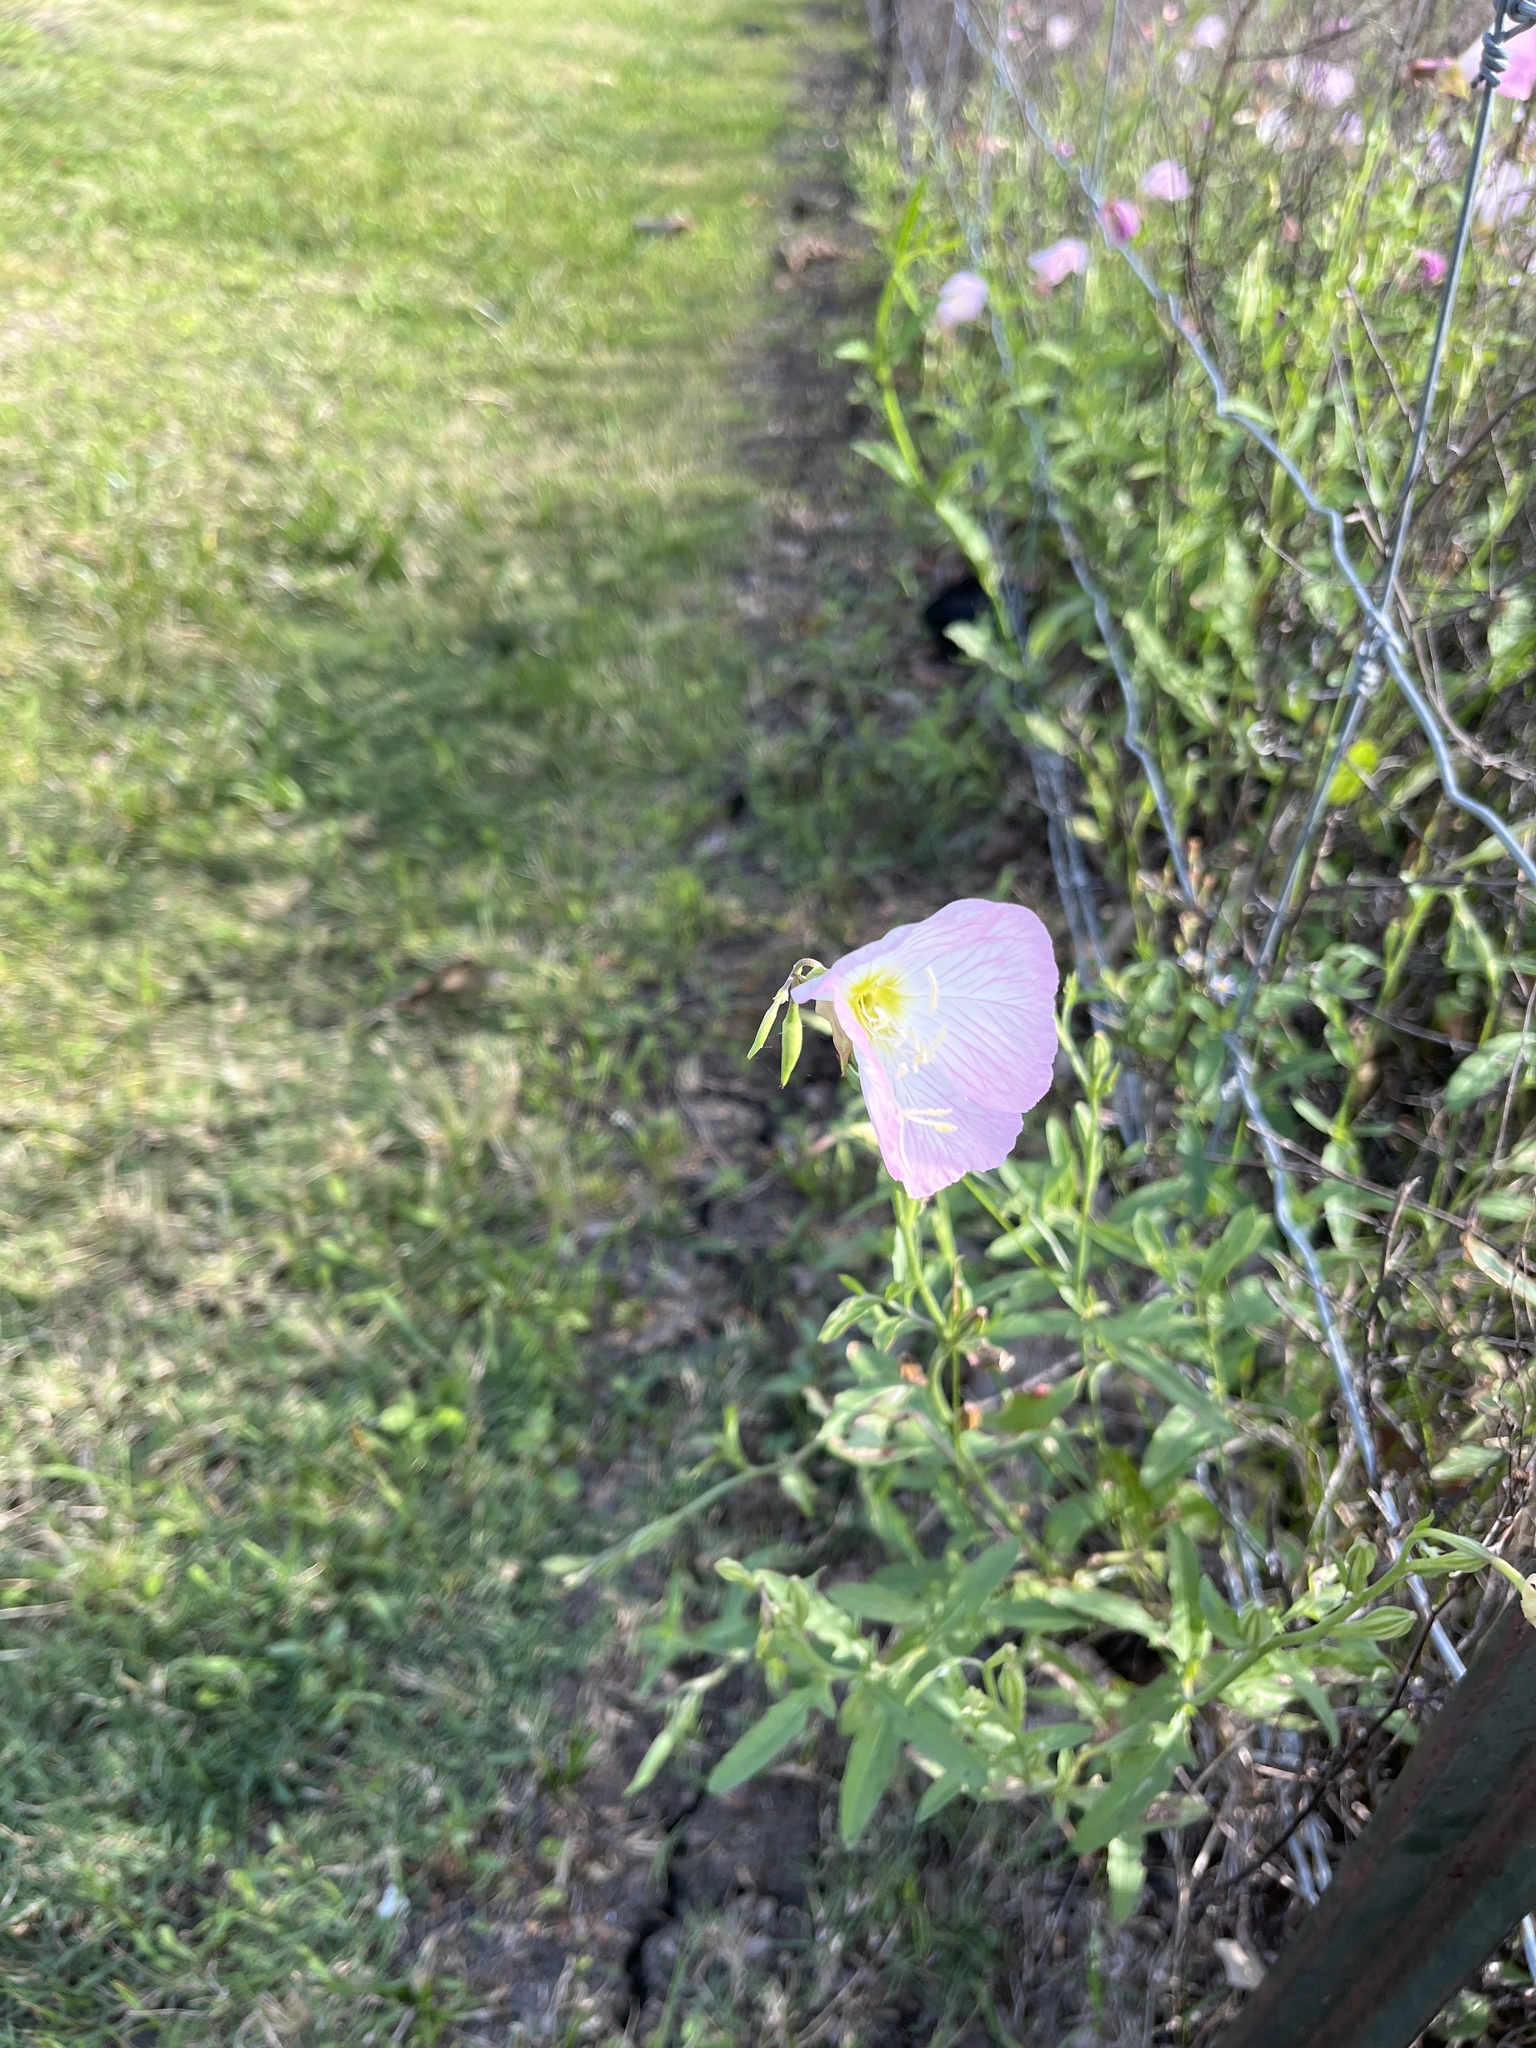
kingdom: Plantae
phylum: Tracheophyta
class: Magnoliopsida
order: Myrtales
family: Onagraceae
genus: Oenothera
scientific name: Oenothera speciosa
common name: White evening-primrose
